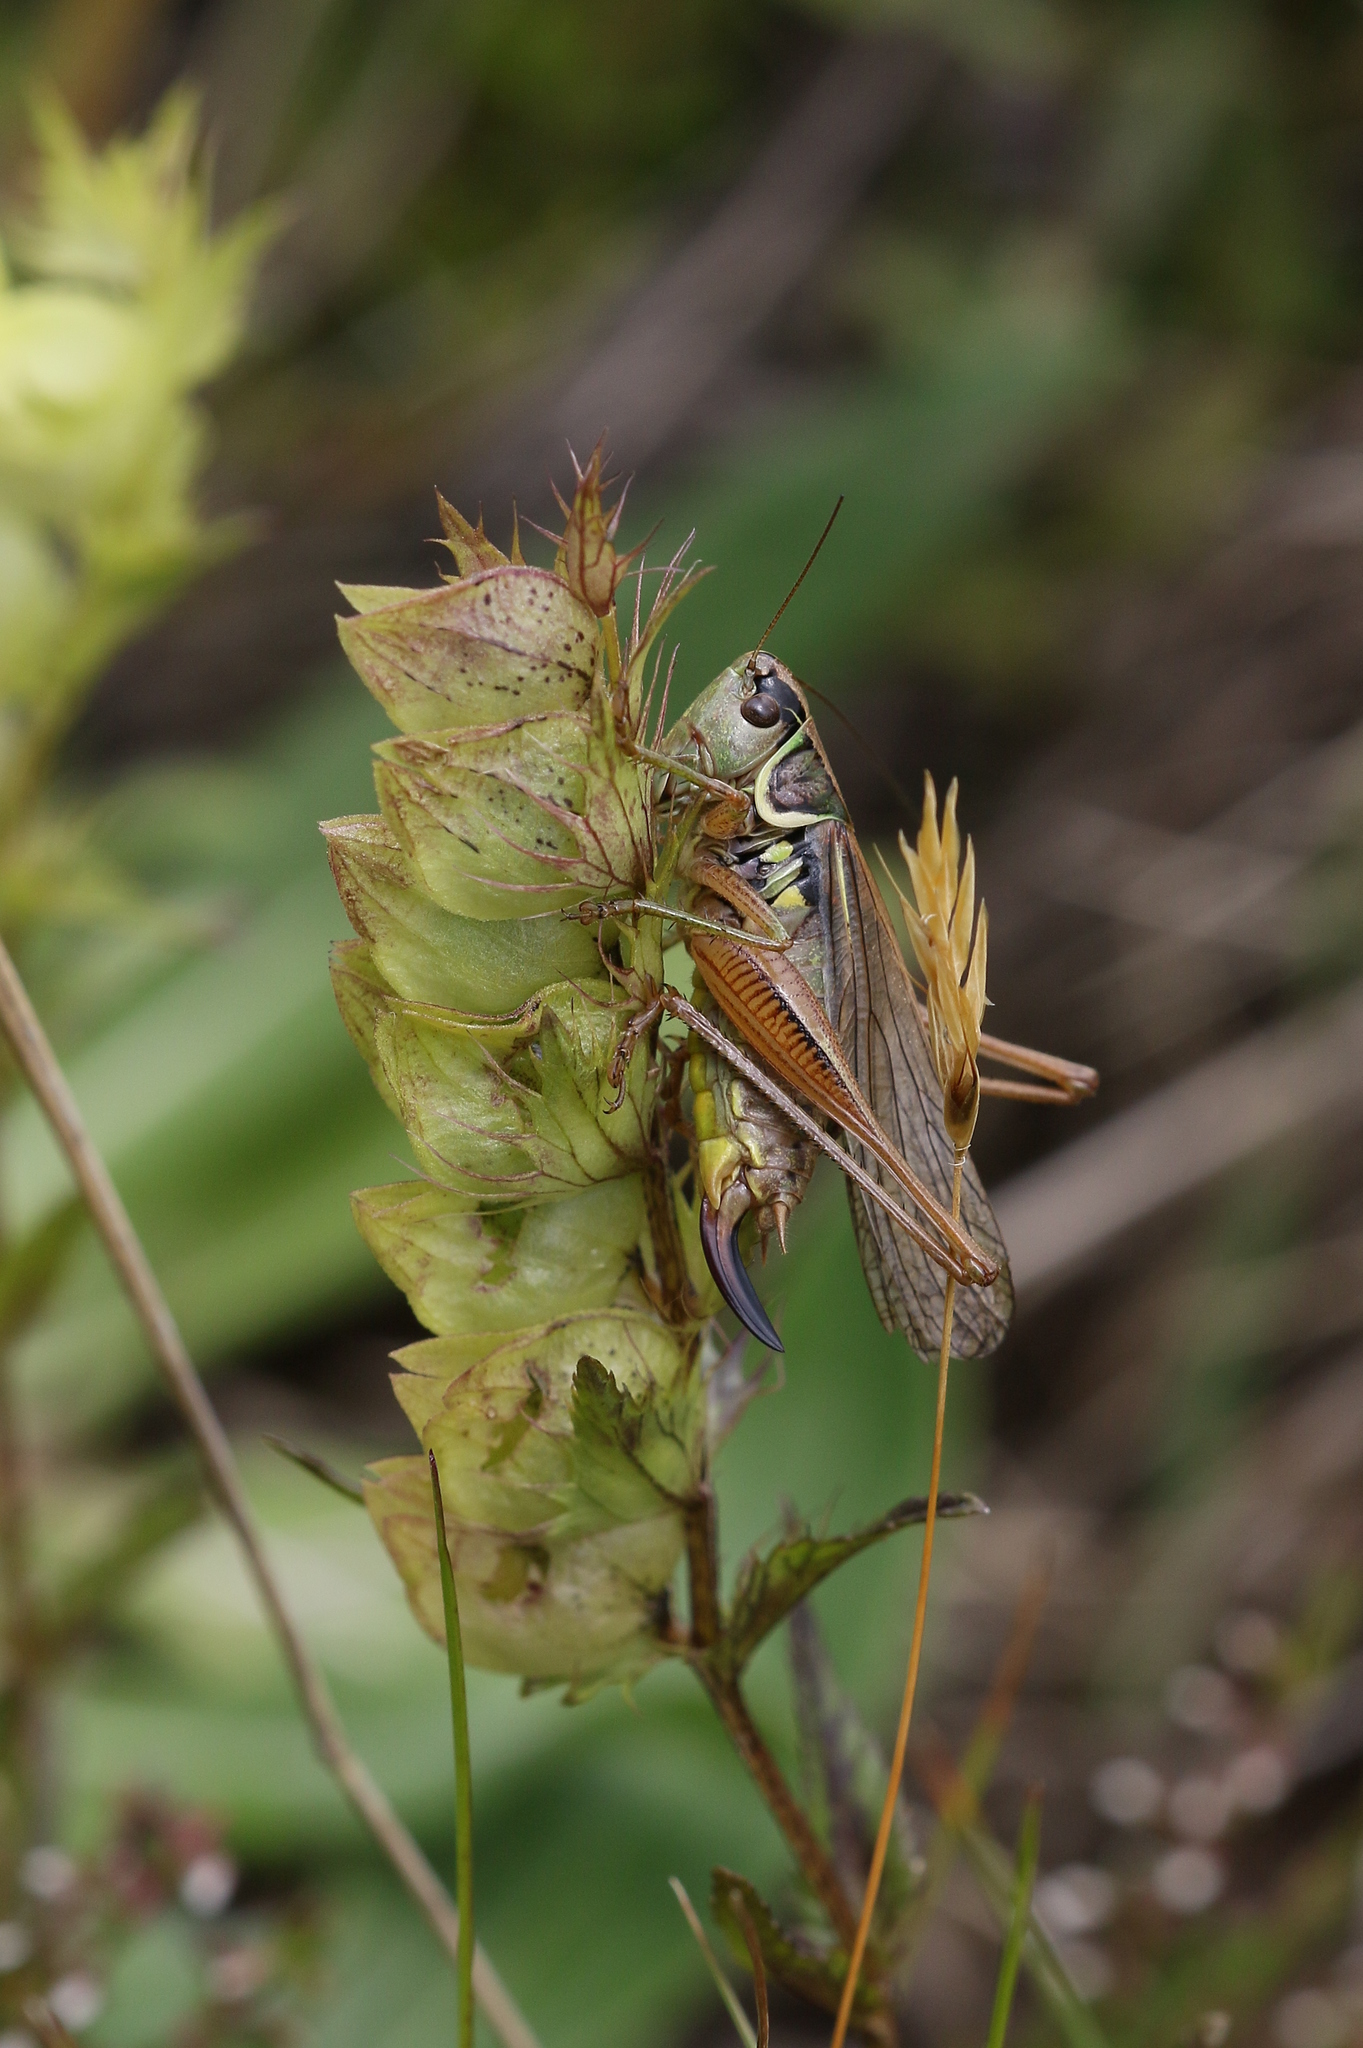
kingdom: Animalia
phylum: Arthropoda
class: Insecta
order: Orthoptera
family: Tettigoniidae
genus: Roeseliana
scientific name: Roeseliana roeselii
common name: Roesel's bush cricket
